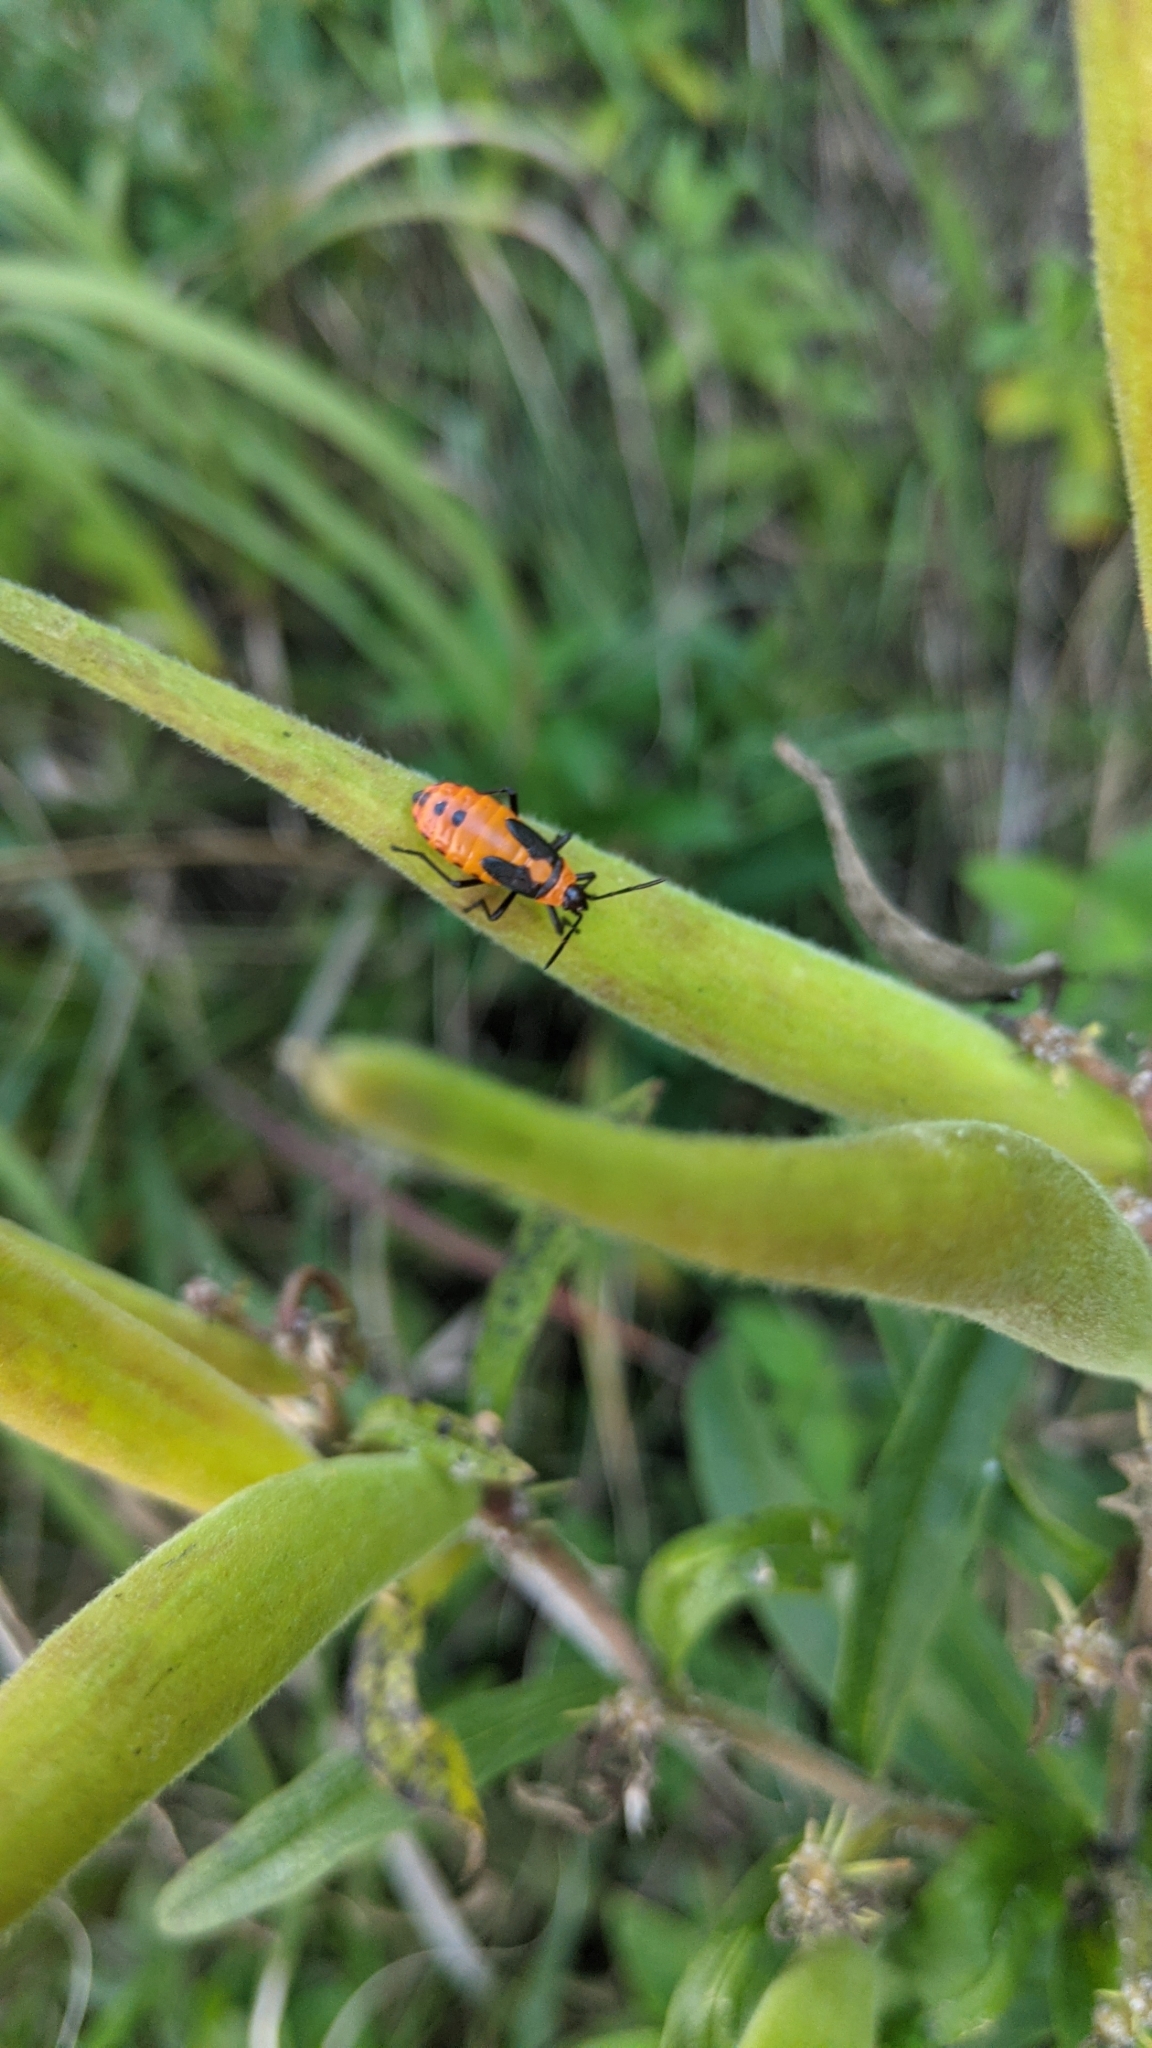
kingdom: Animalia
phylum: Arthropoda
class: Insecta
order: Hemiptera
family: Lygaeidae
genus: Oncopeltus
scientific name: Oncopeltus fasciatus
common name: Large milkweed bug
